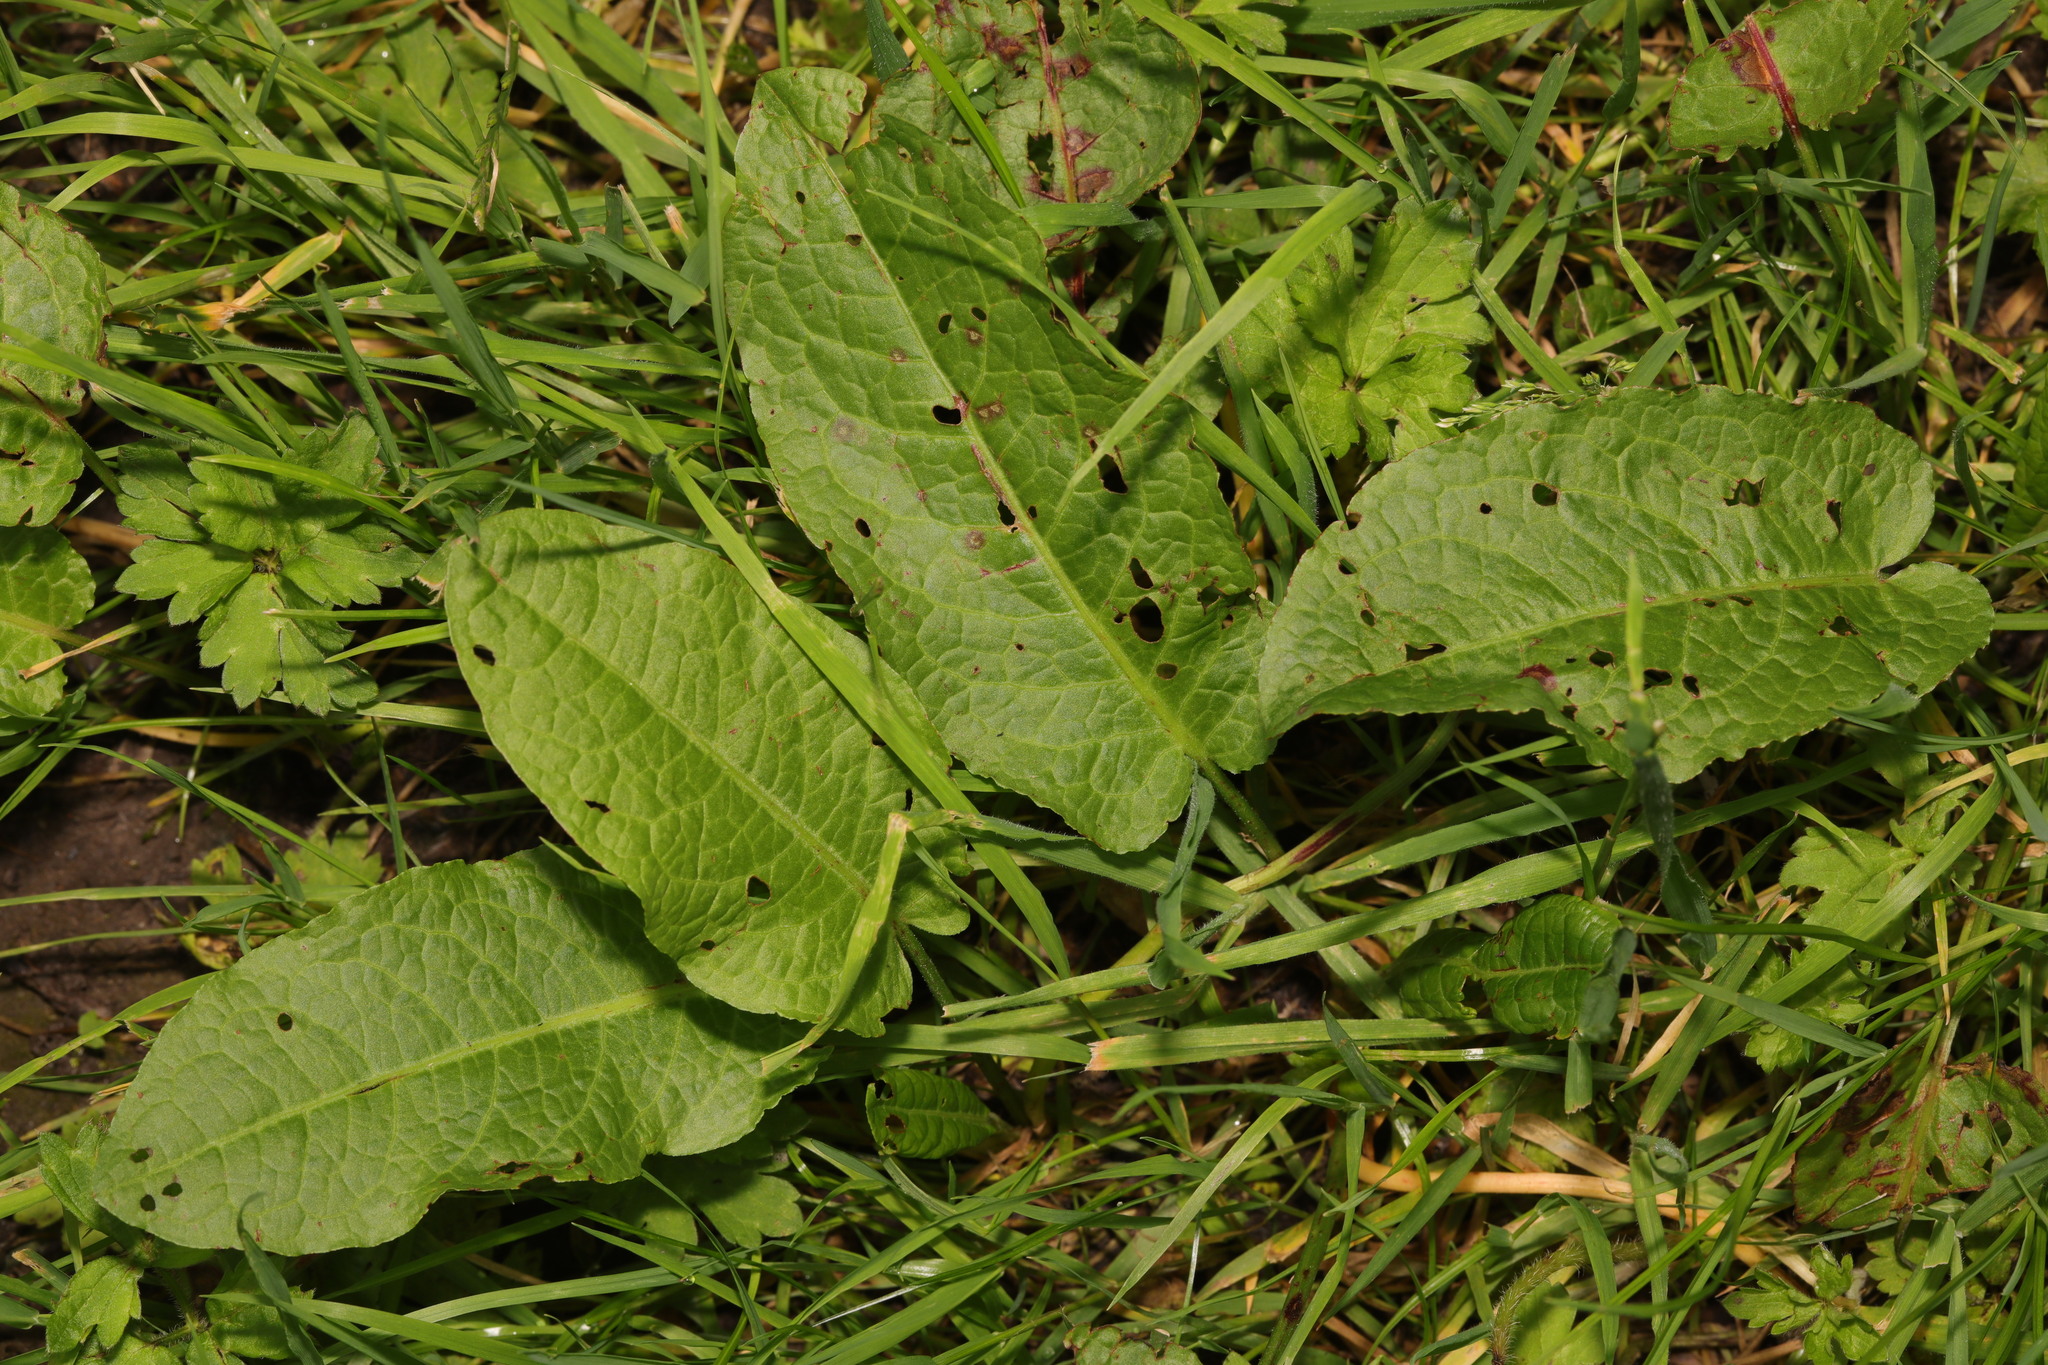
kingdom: Plantae
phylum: Tracheophyta
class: Magnoliopsida
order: Caryophyllales
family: Polygonaceae
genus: Rumex
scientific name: Rumex obtusifolius
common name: Bitter dock
